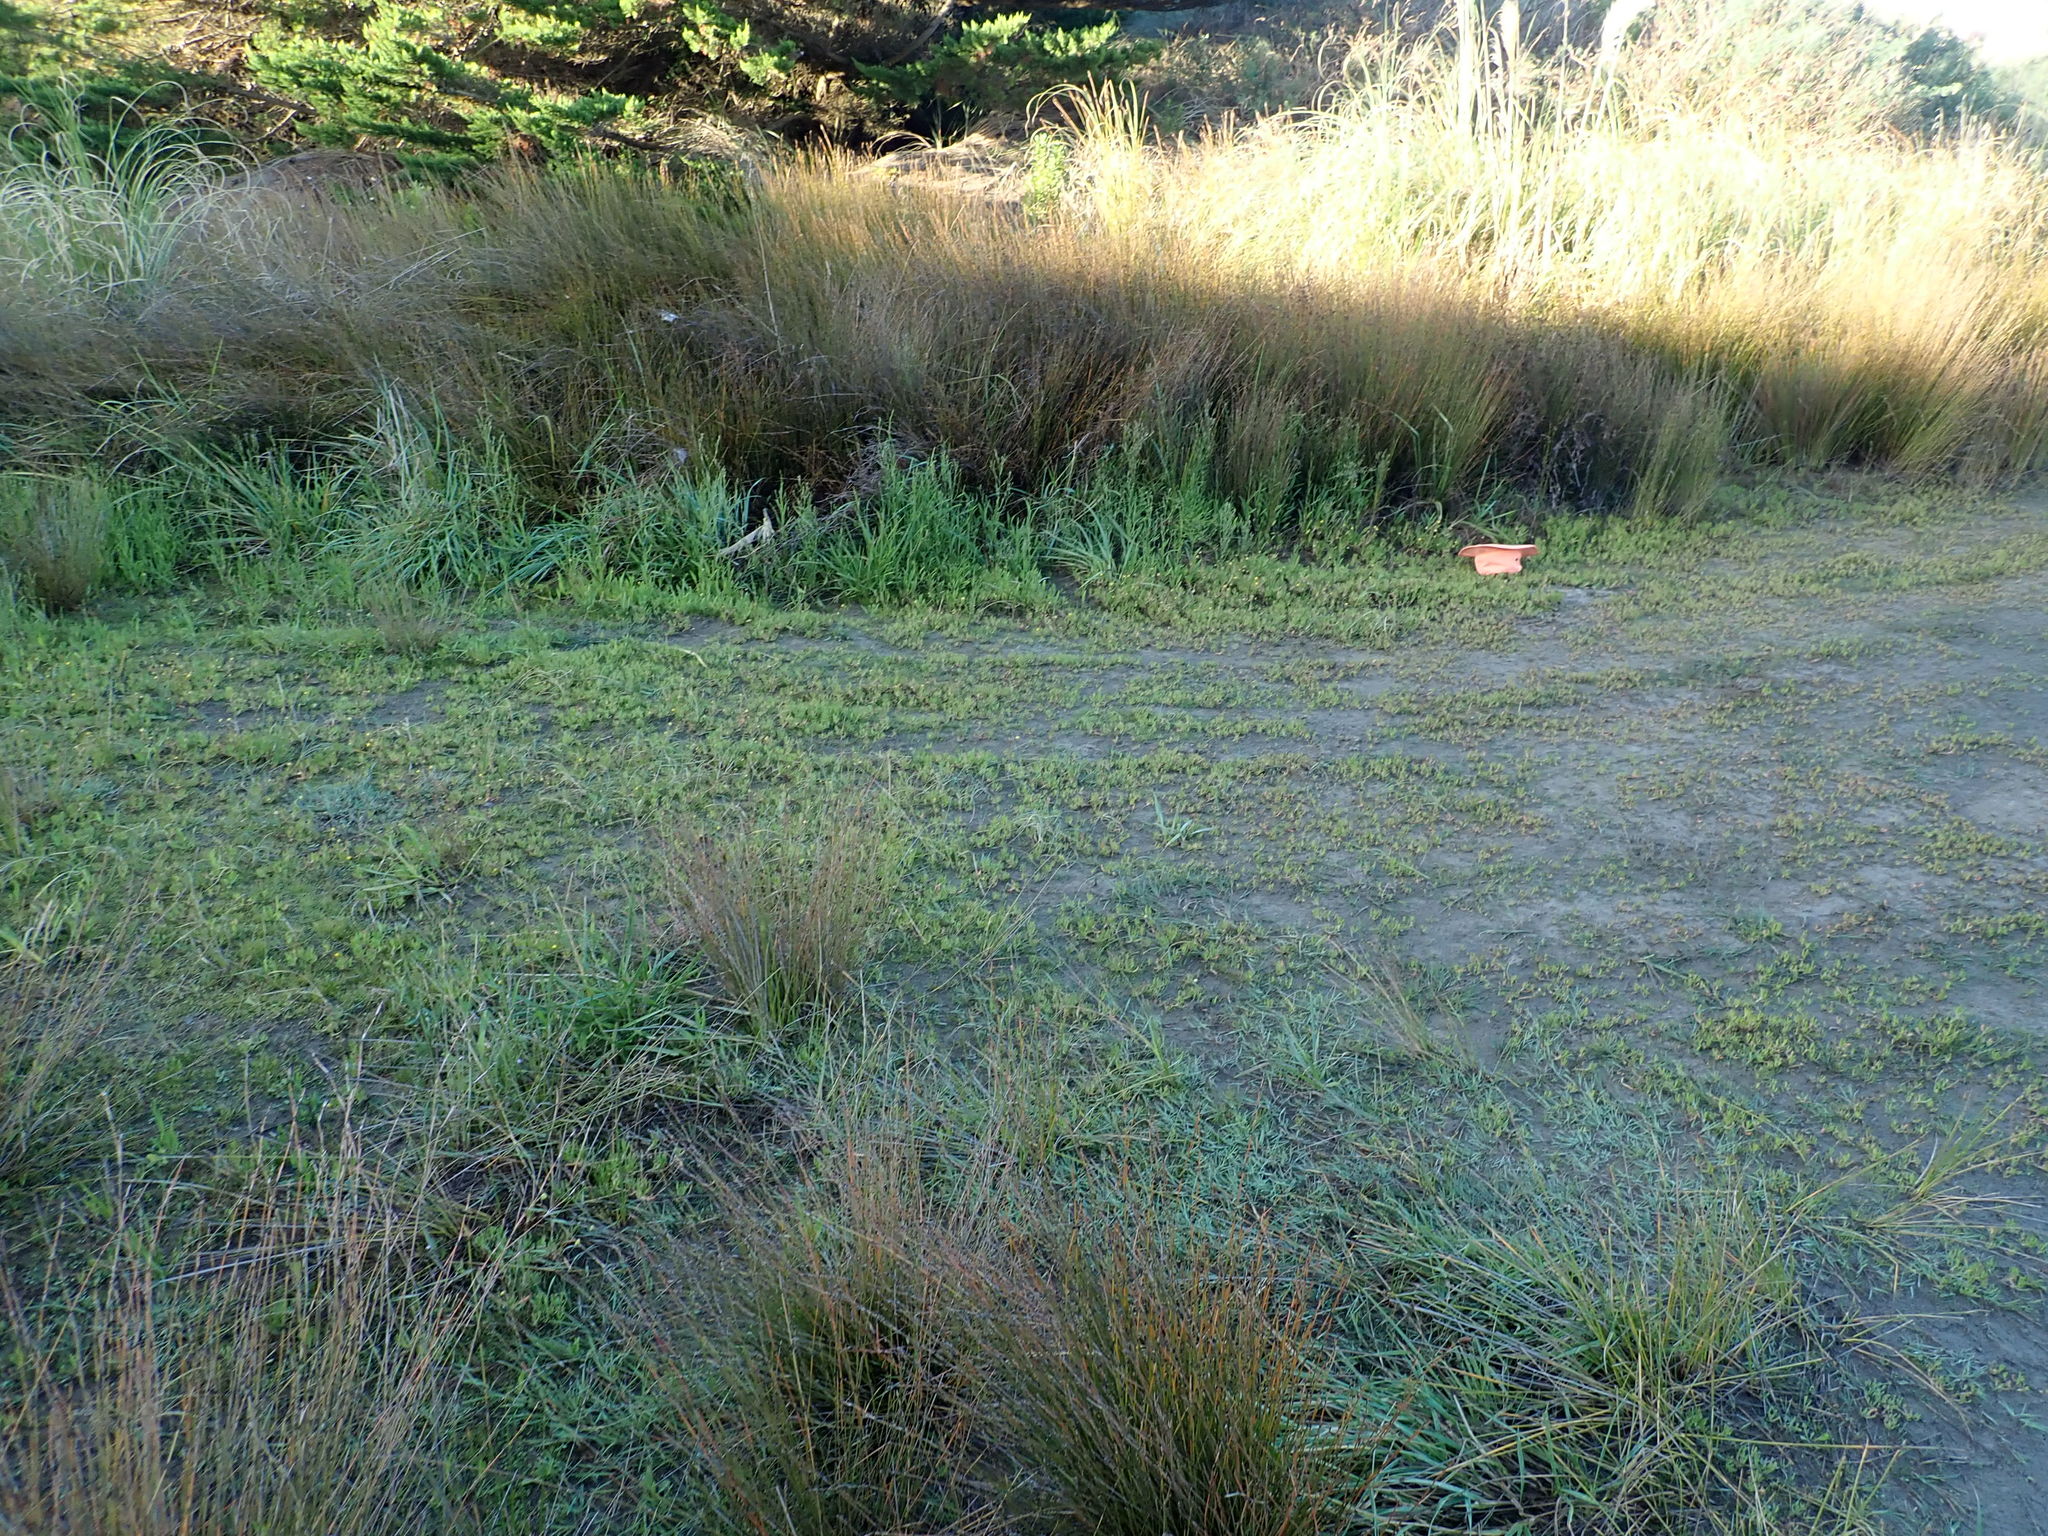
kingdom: Plantae
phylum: Tracheophyta
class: Magnoliopsida
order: Asterales
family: Asteraceae
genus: Cotula
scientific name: Cotula coronopifolia
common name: Buttonweed
